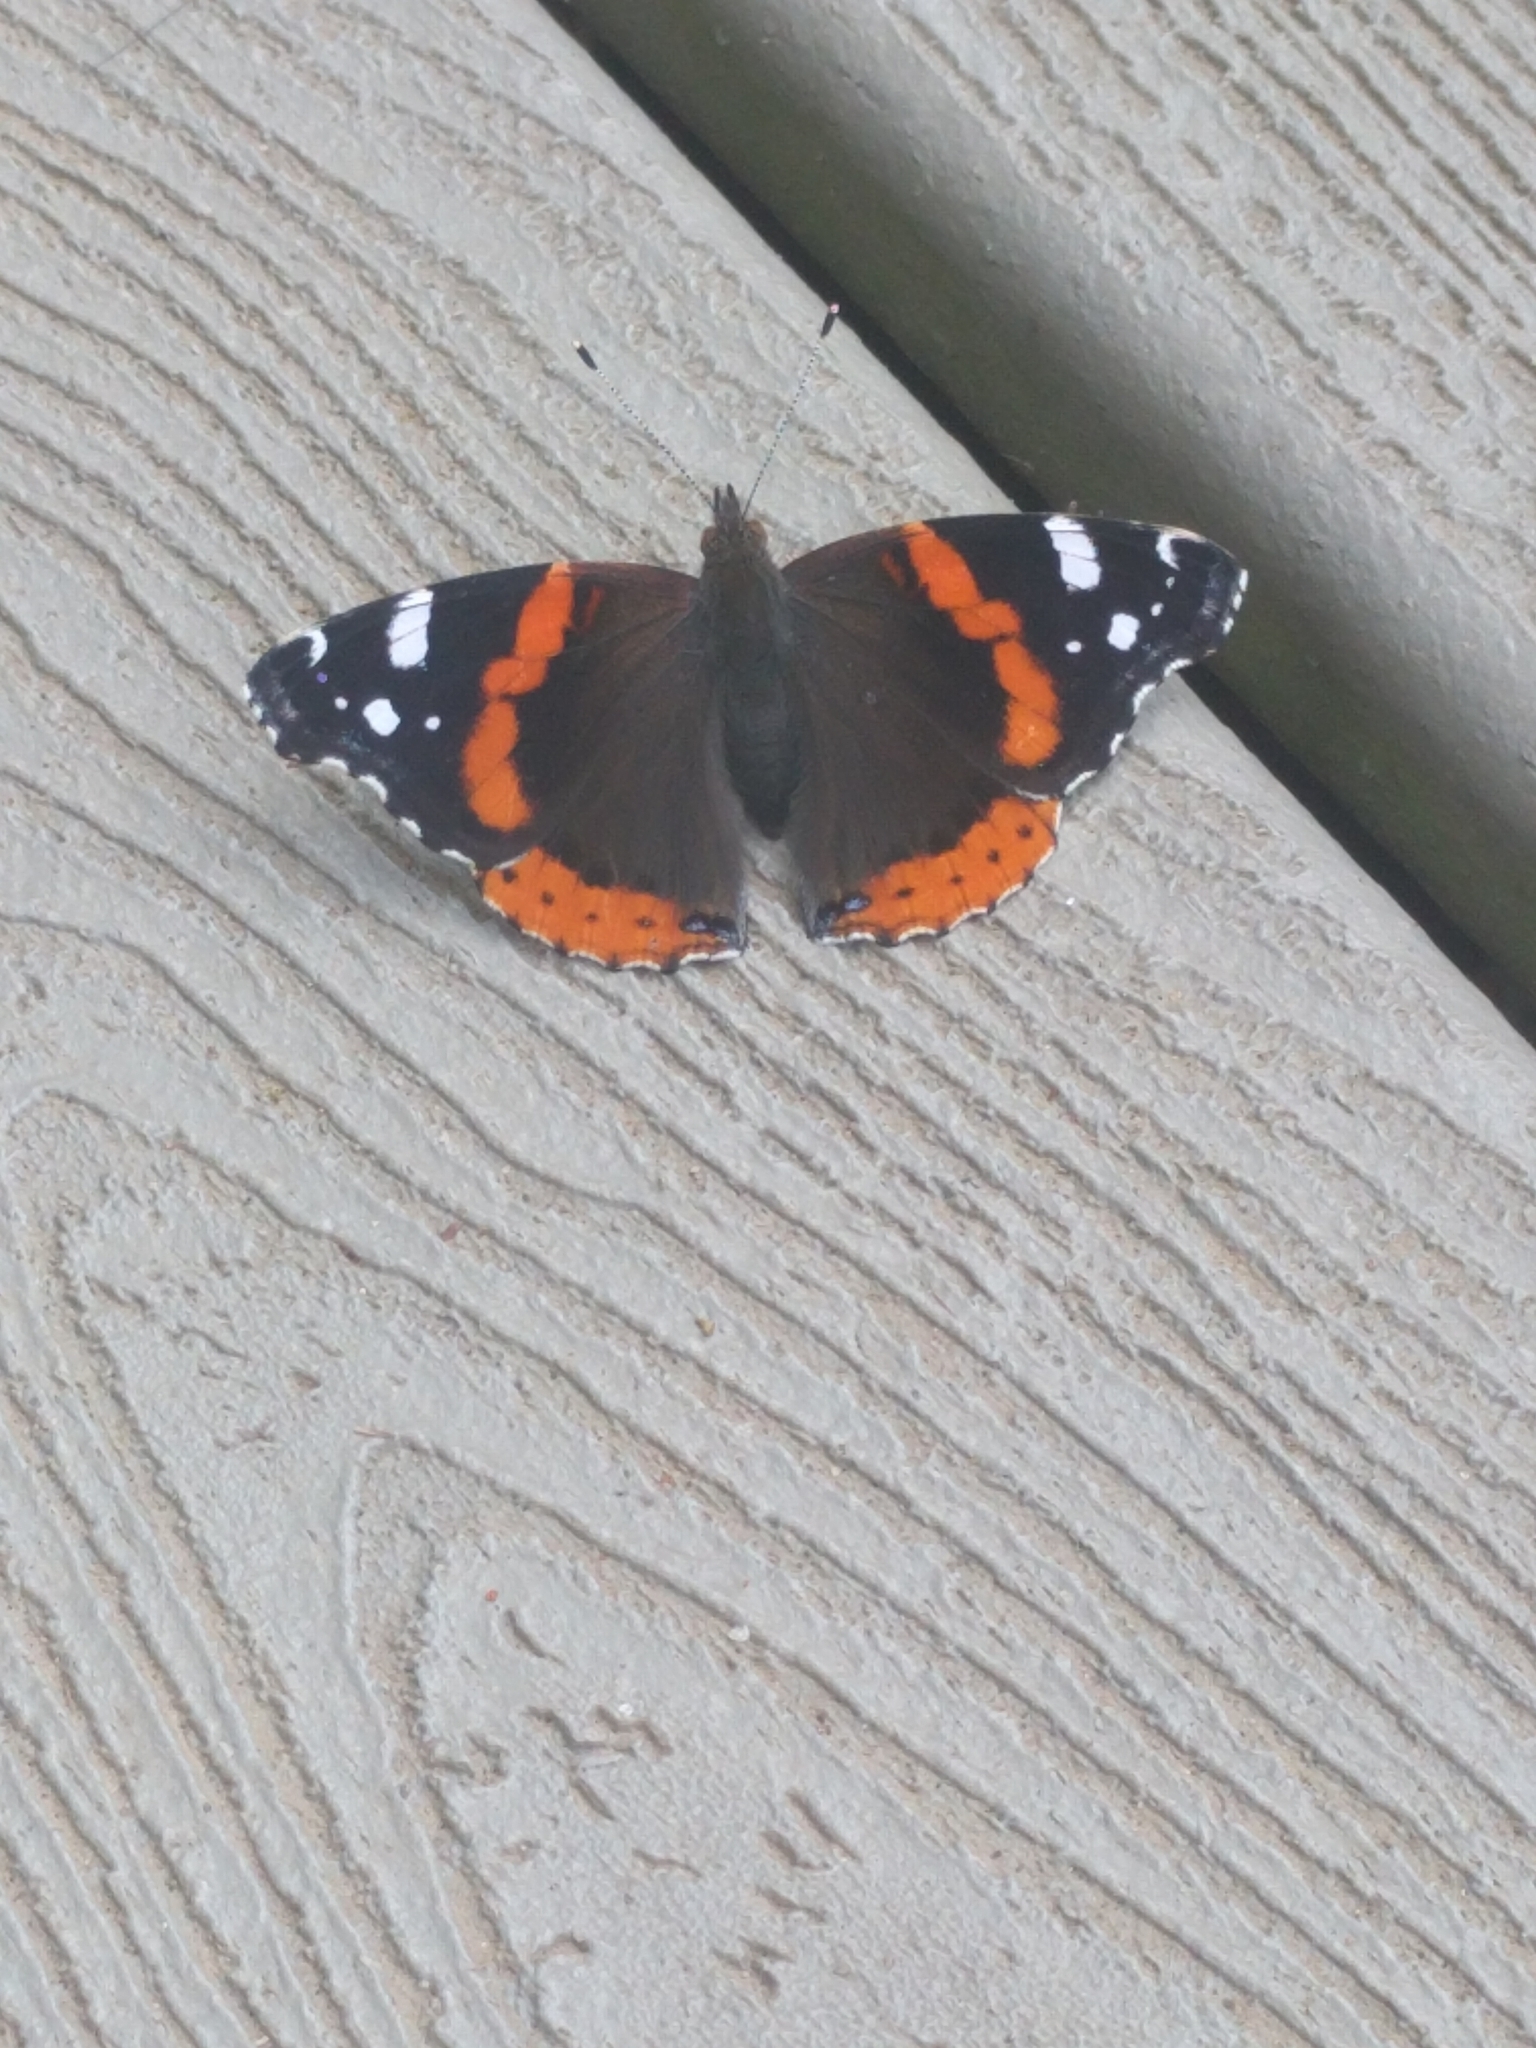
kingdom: Animalia
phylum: Arthropoda
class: Insecta
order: Lepidoptera
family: Nymphalidae
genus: Vanessa
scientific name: Vanessa atalanta
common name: Red admiral
